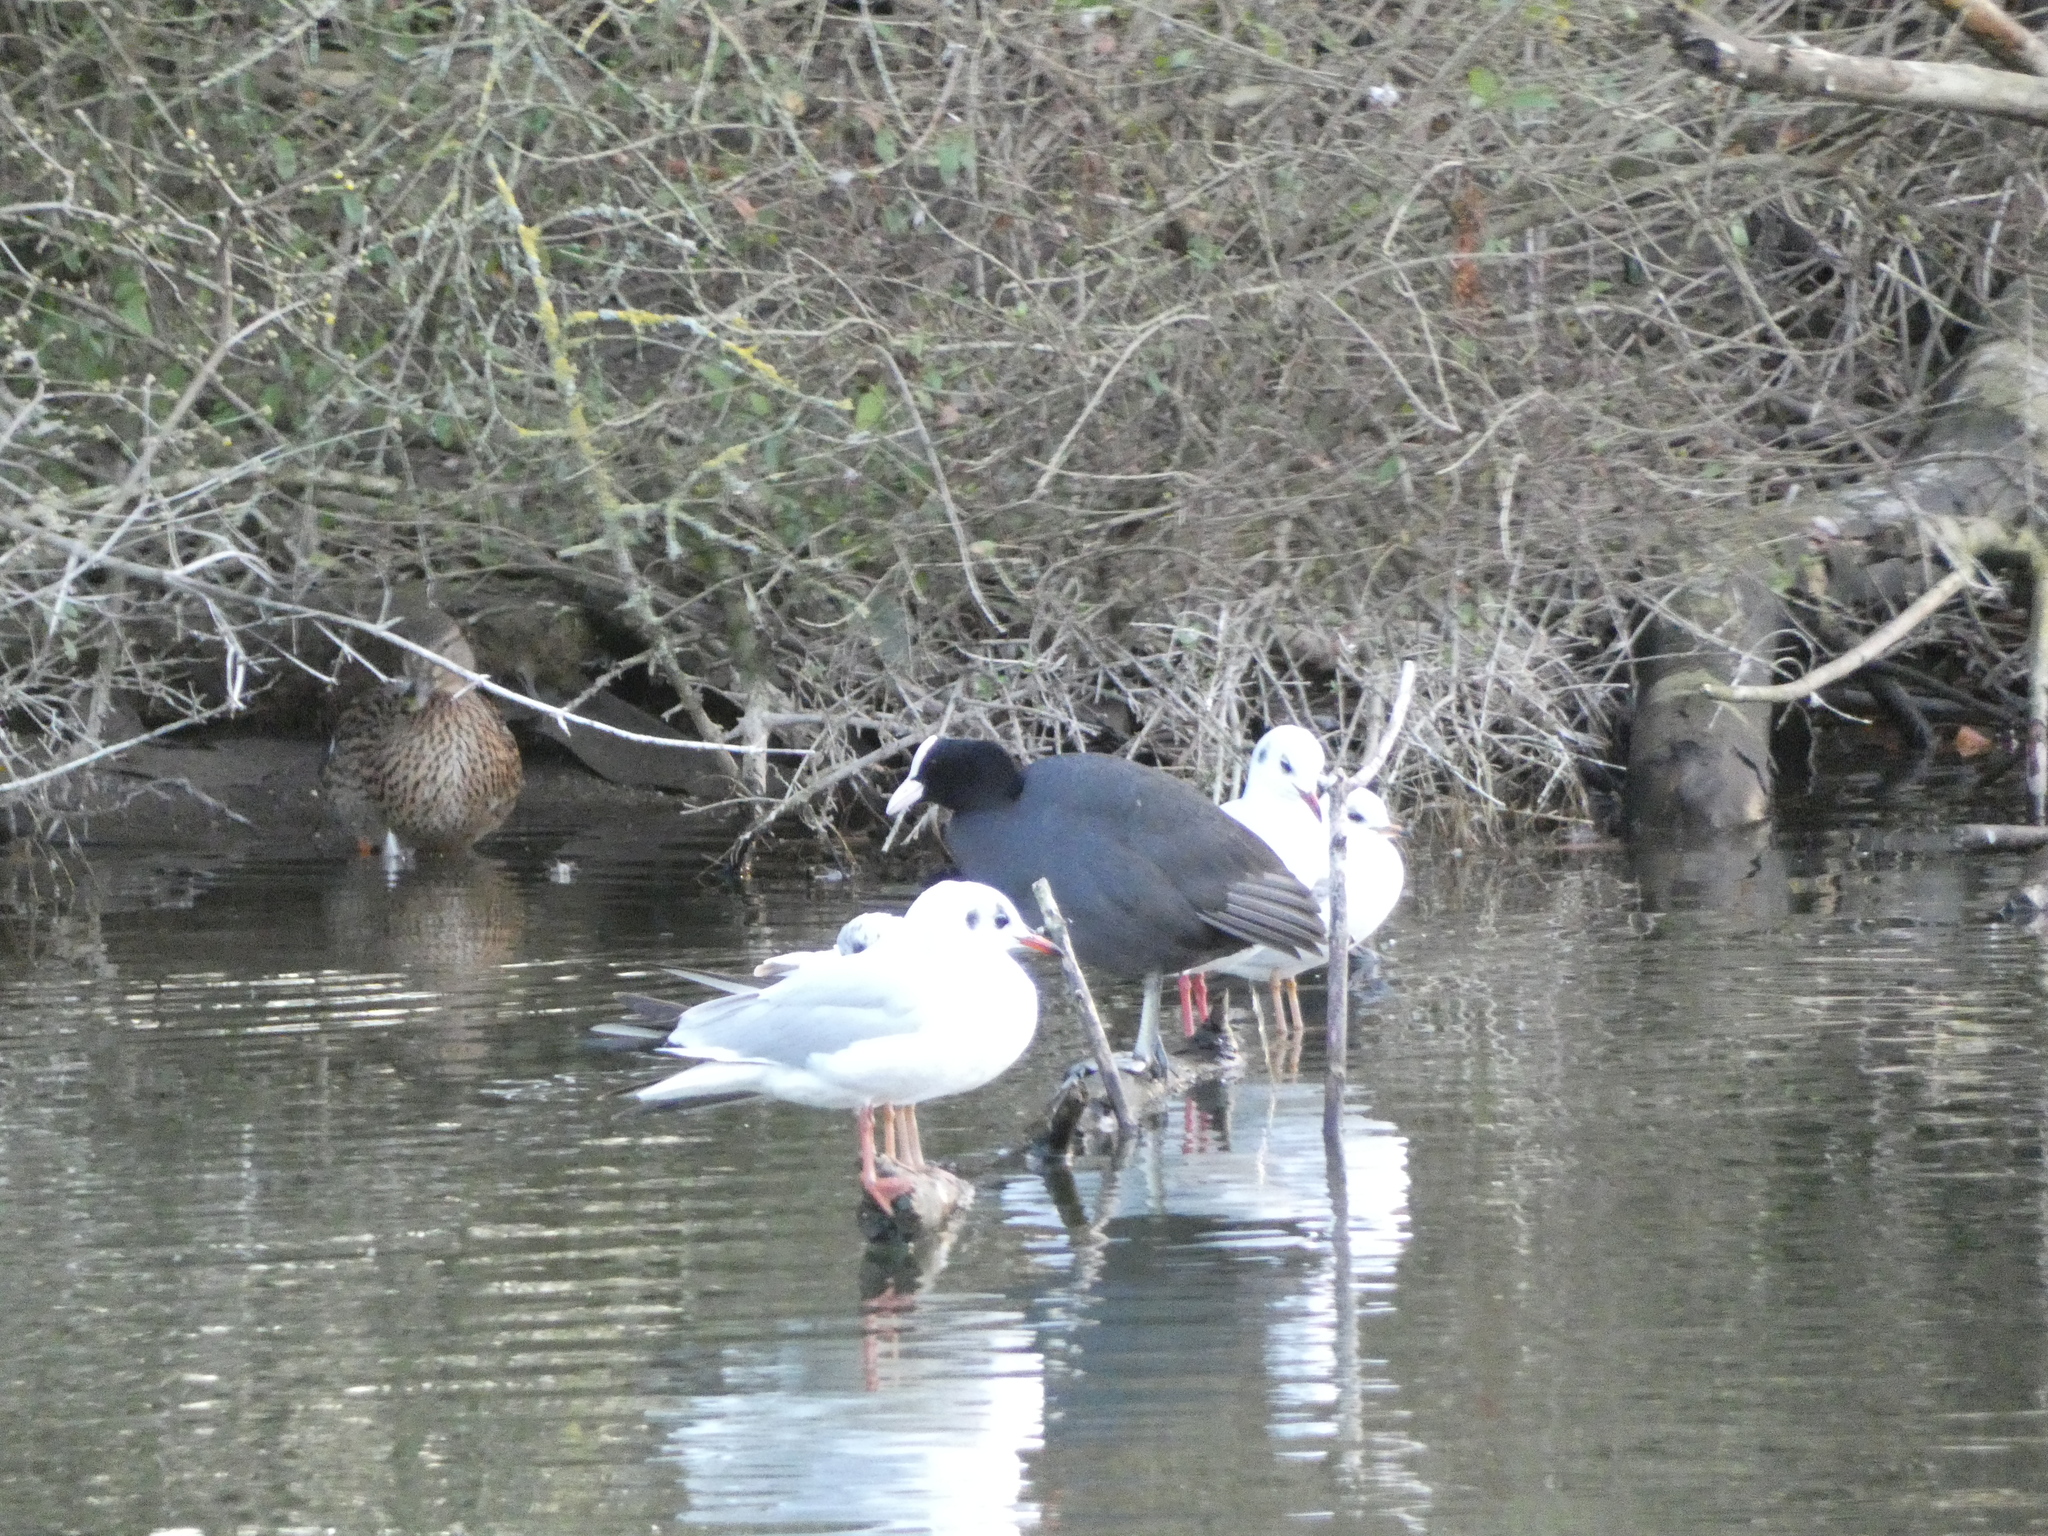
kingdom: Animalia
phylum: Chordata
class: Aves
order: Gruiformes
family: Rallidae
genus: Fulica
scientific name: Fulica atra
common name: Eurasian coot
